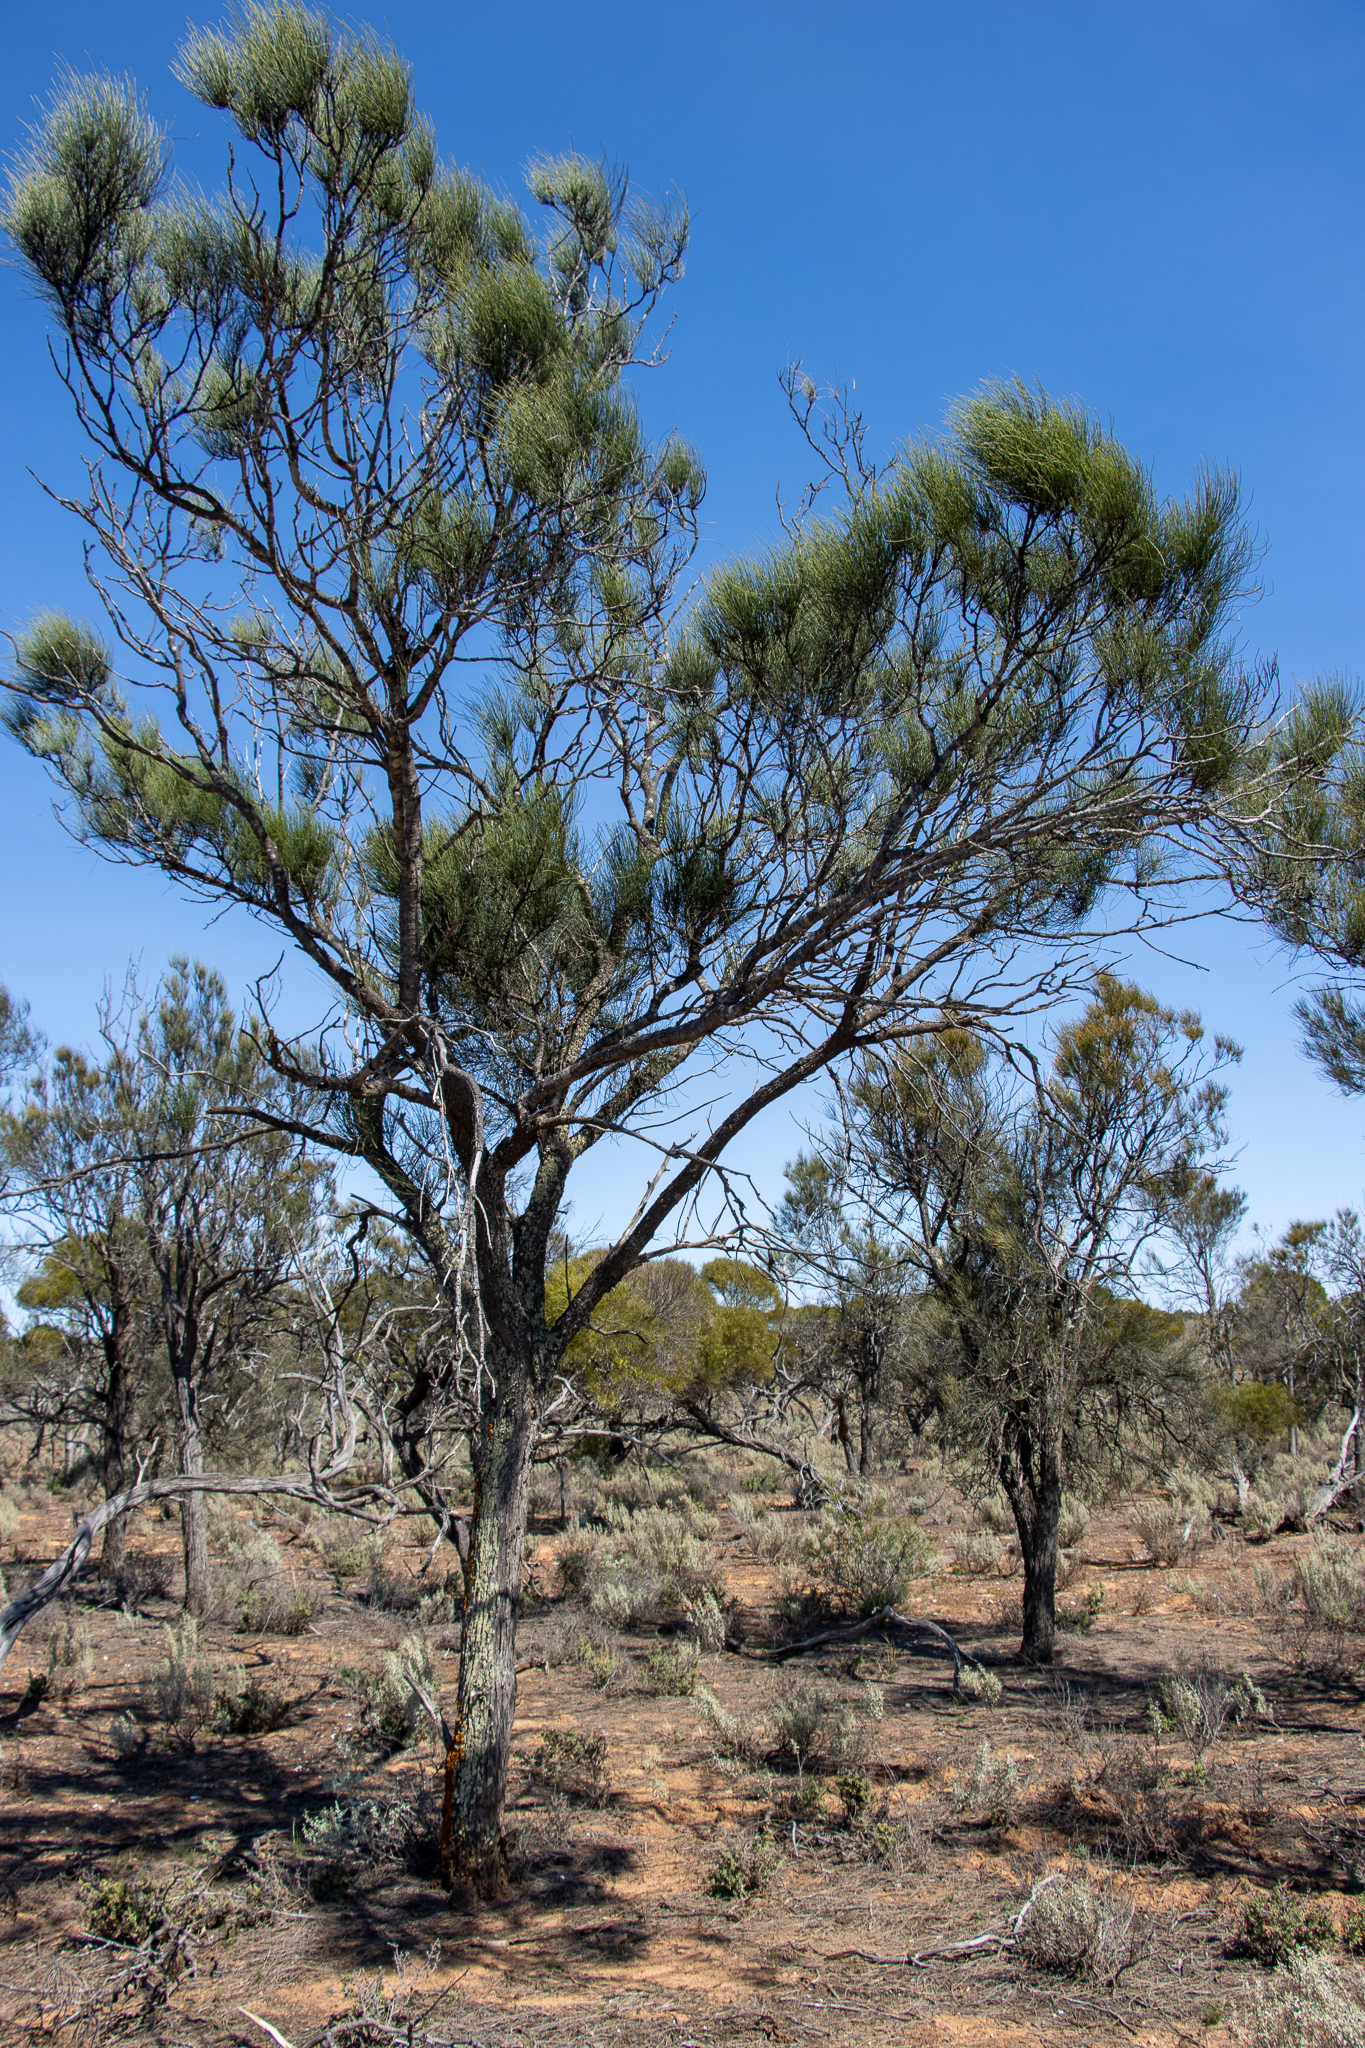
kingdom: Plantae
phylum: Tracheophyta
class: Magnoliopsida
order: Fagales
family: Casuarinaceae
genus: Casuarina
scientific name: Casuarina pauper
